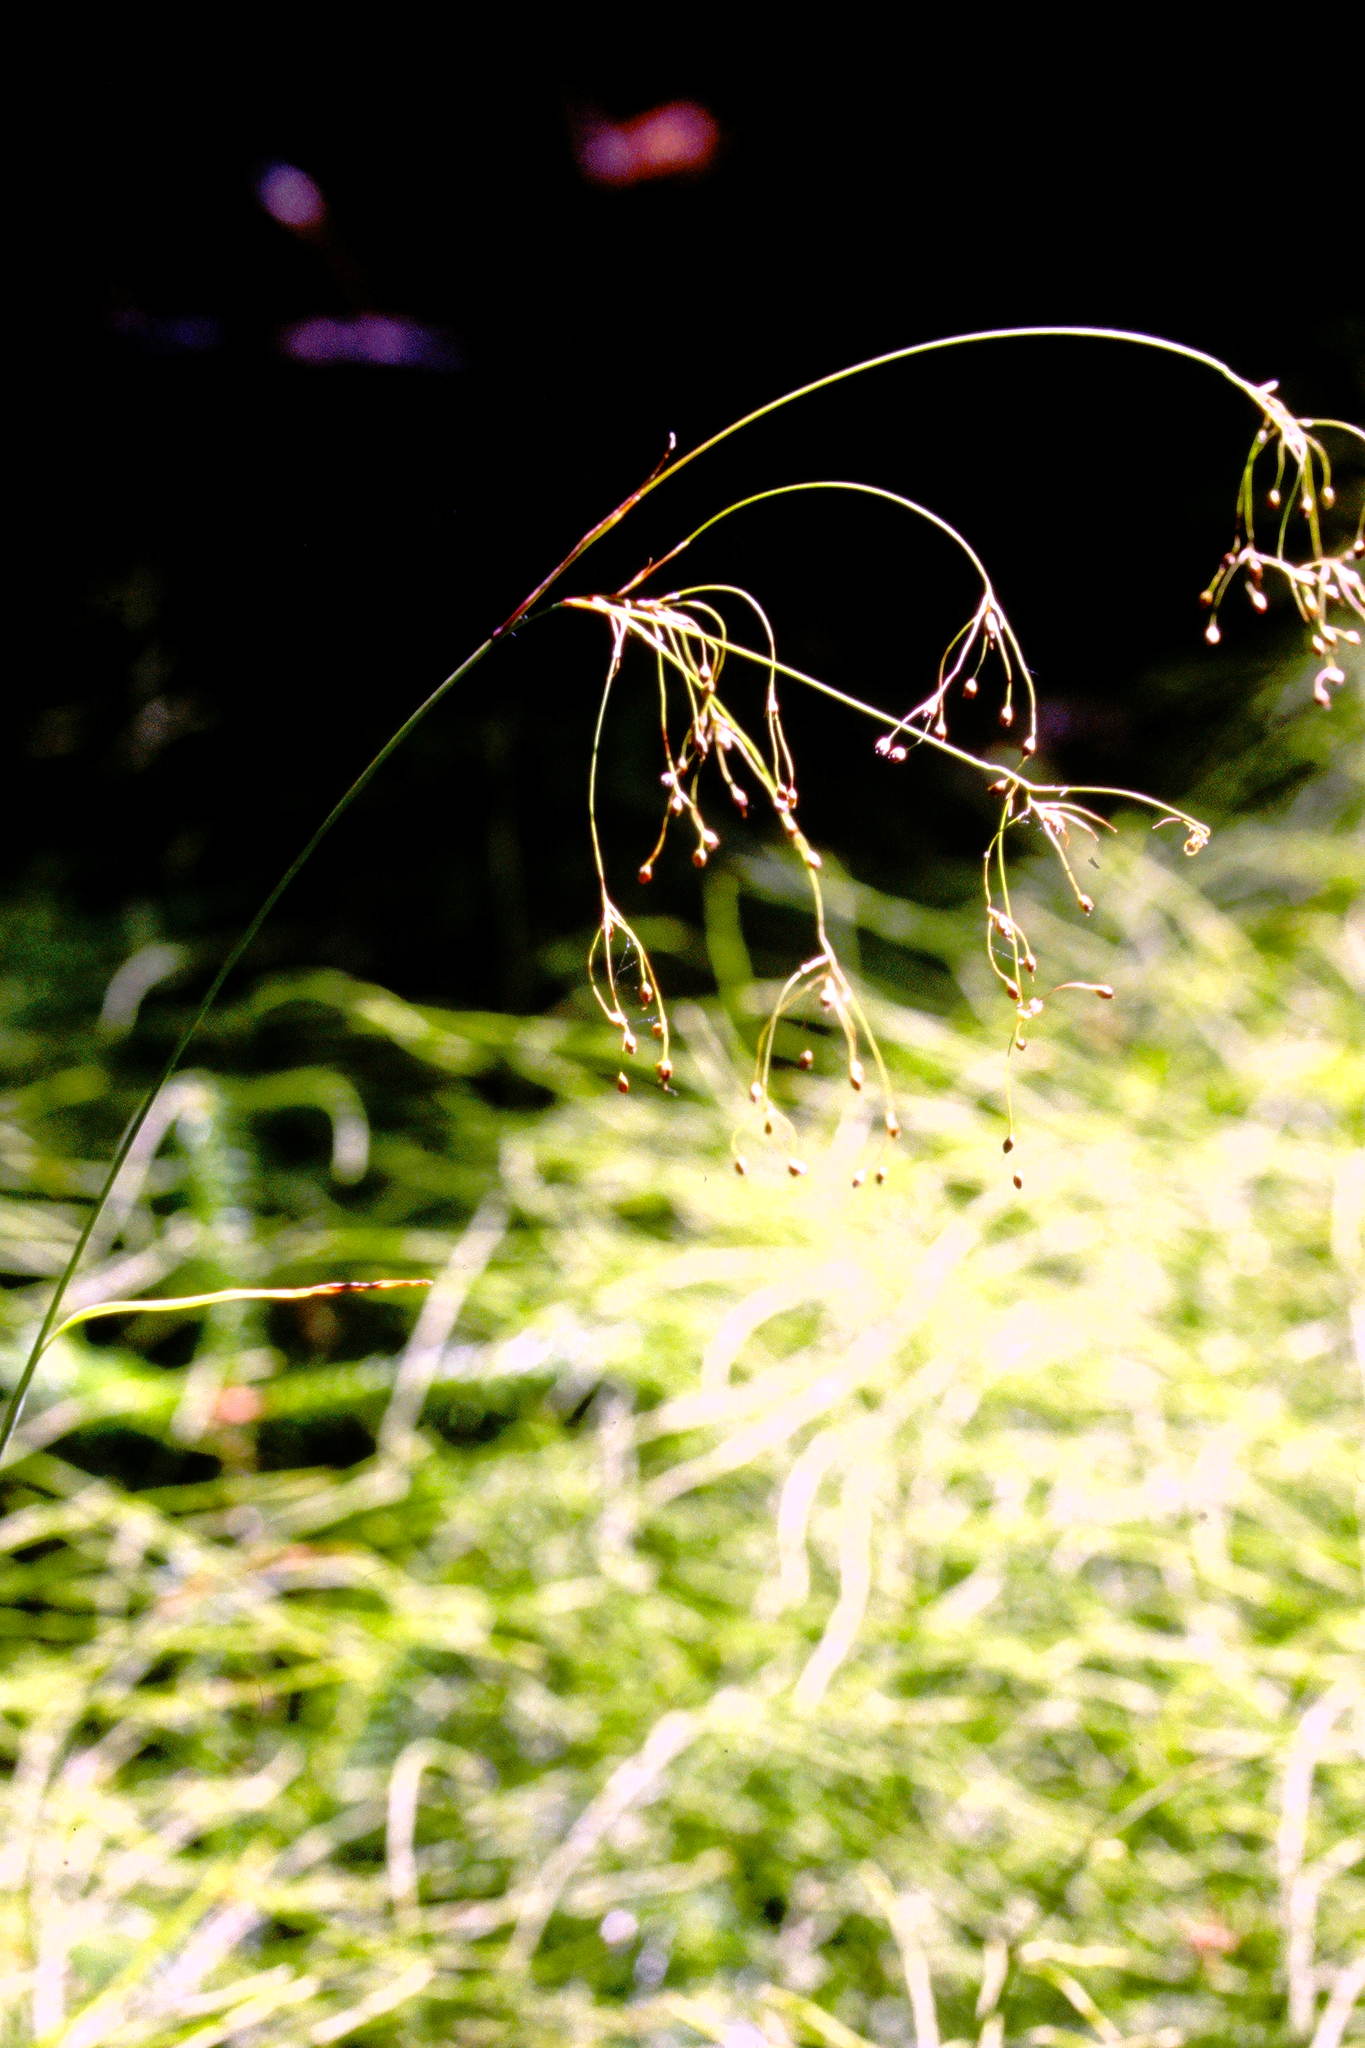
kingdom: Plantae
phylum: Tracheophyta
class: Liliopsida
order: Poales
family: Juncaceae
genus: Luzula
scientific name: Luzula parviflora
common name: Millet woodrush
